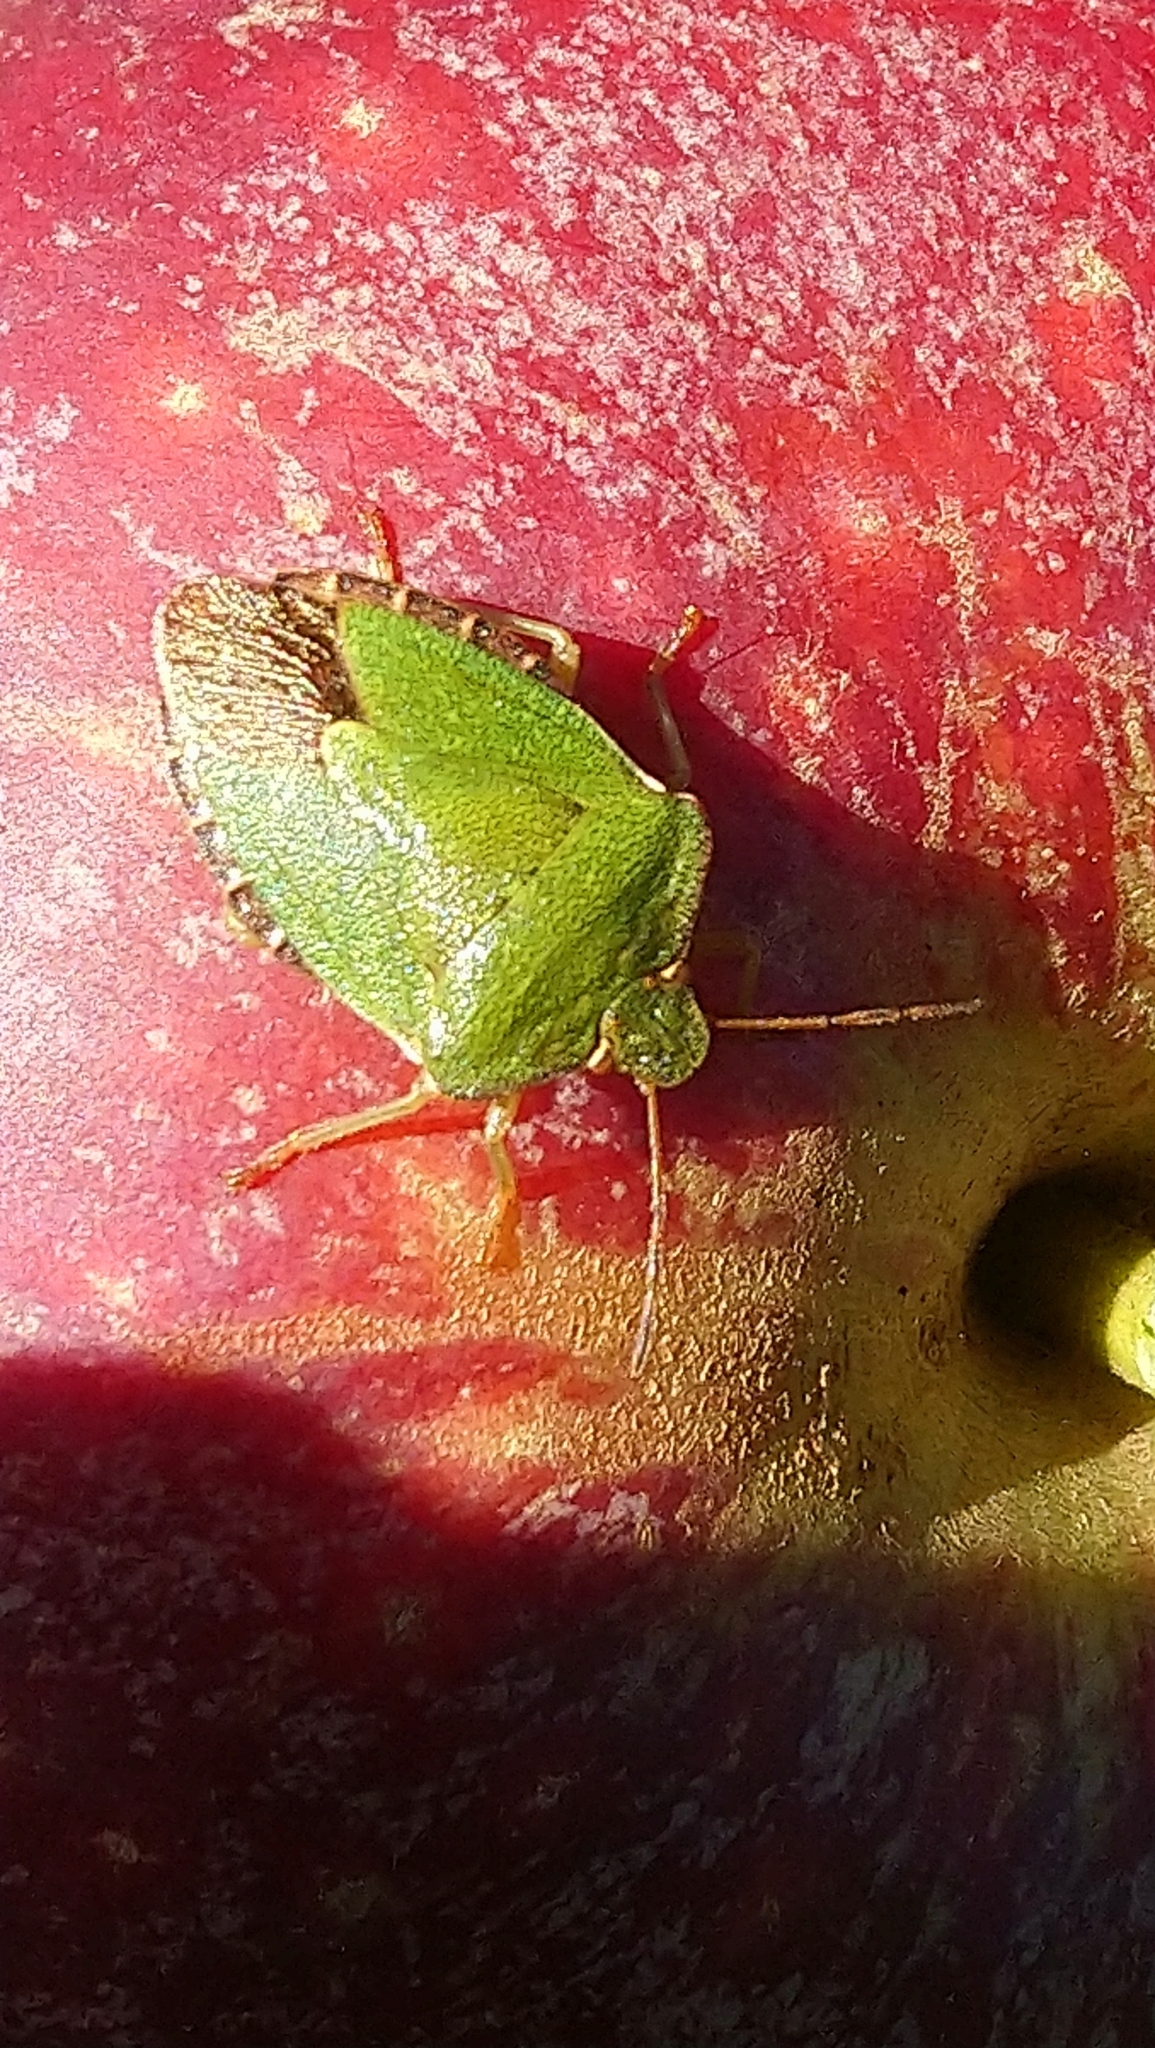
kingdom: Animalia
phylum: Arthropoda
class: Insecta
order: Hemiptera
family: Pentatomidae
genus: Palomena
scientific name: Palomena prasina
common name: Green shieldbug
